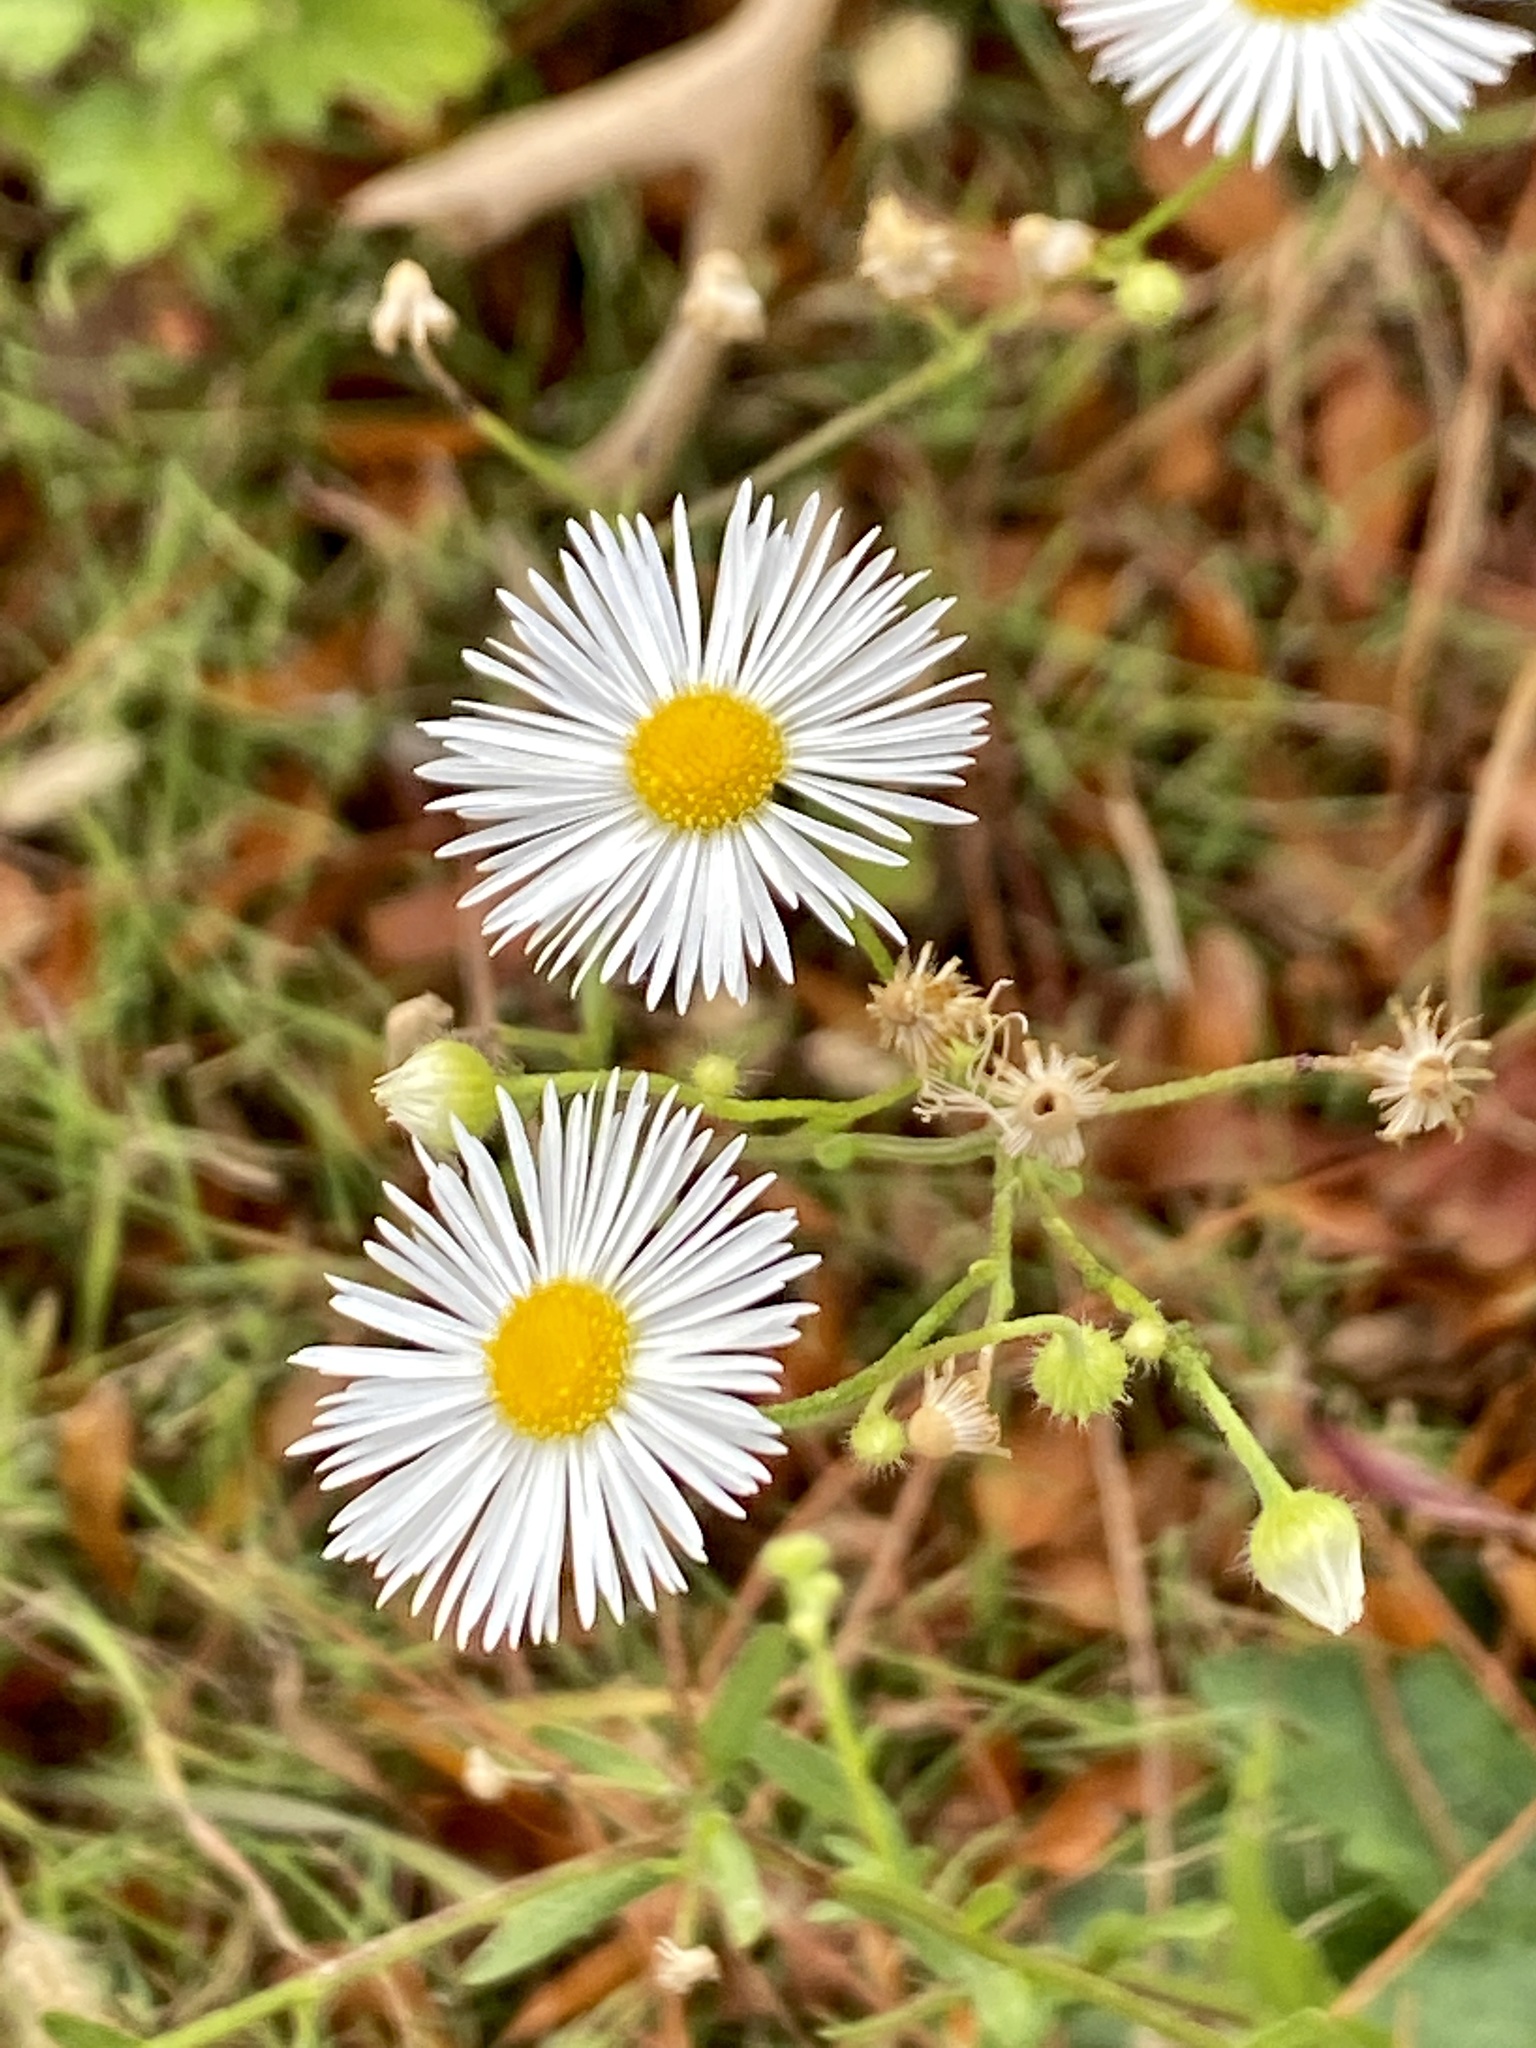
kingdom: Plantae
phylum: Tracheophyta
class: Magnoliopsida
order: Asterales
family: Asteraceae
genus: Erigeron
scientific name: Erigeron annuus
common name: Tall fleabane
